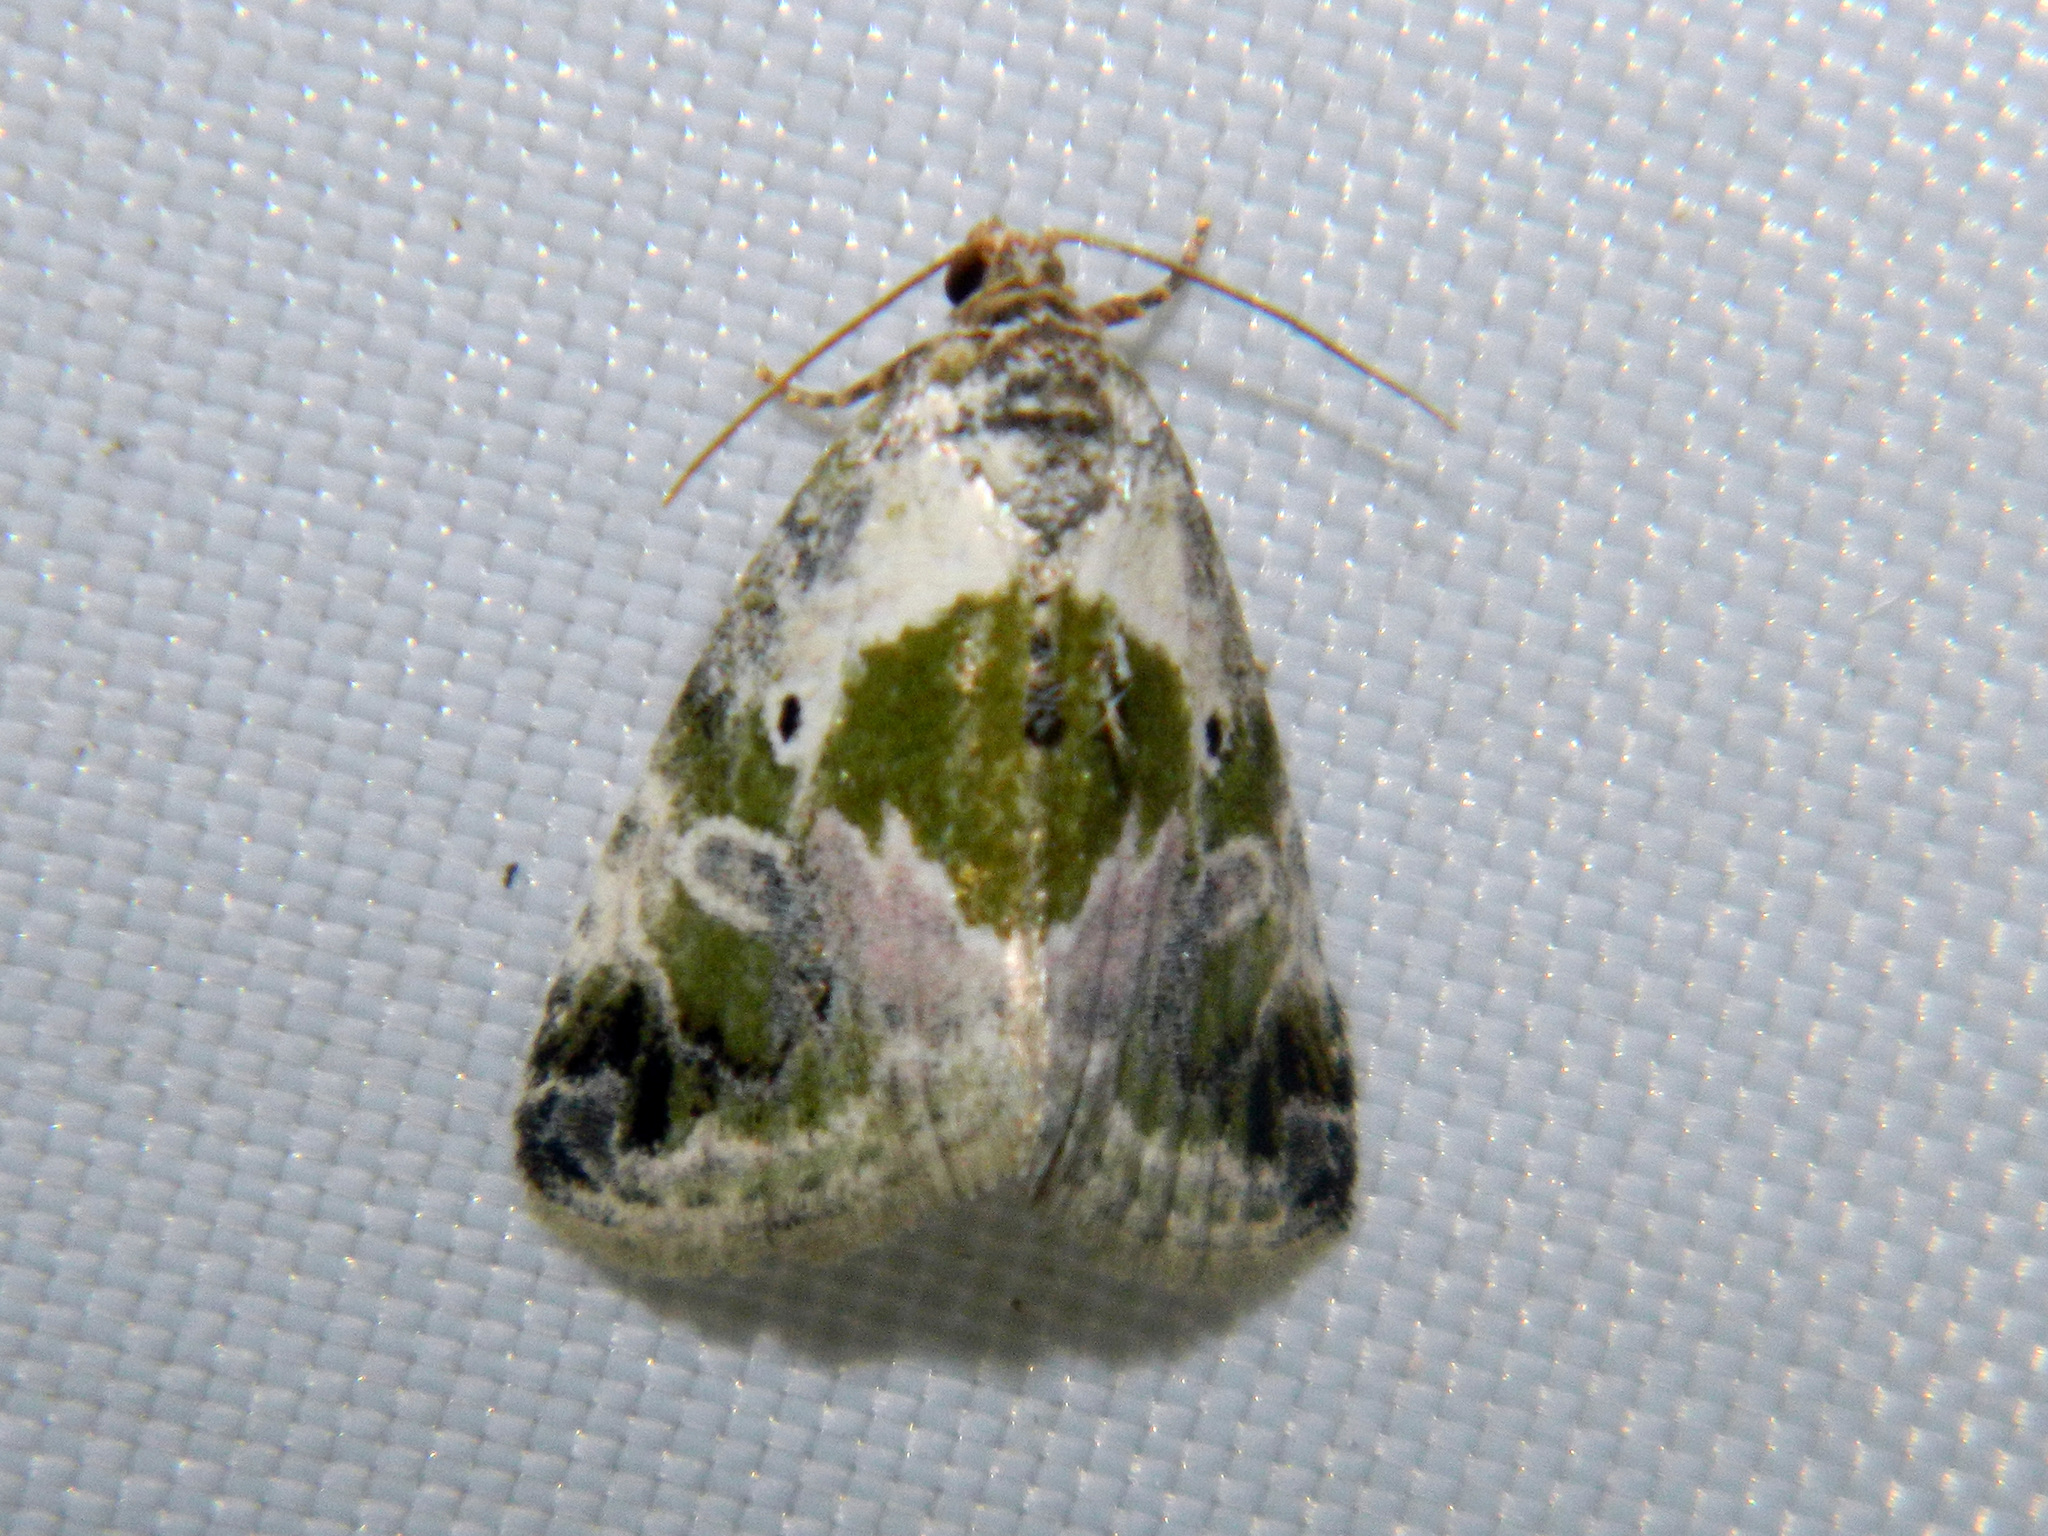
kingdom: Animalia
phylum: Arthropoda
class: Insecta
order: Lepidoptera
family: Noctuidae
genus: Maliattha
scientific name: Maliattha synochitis
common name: Black-dotted glyph
